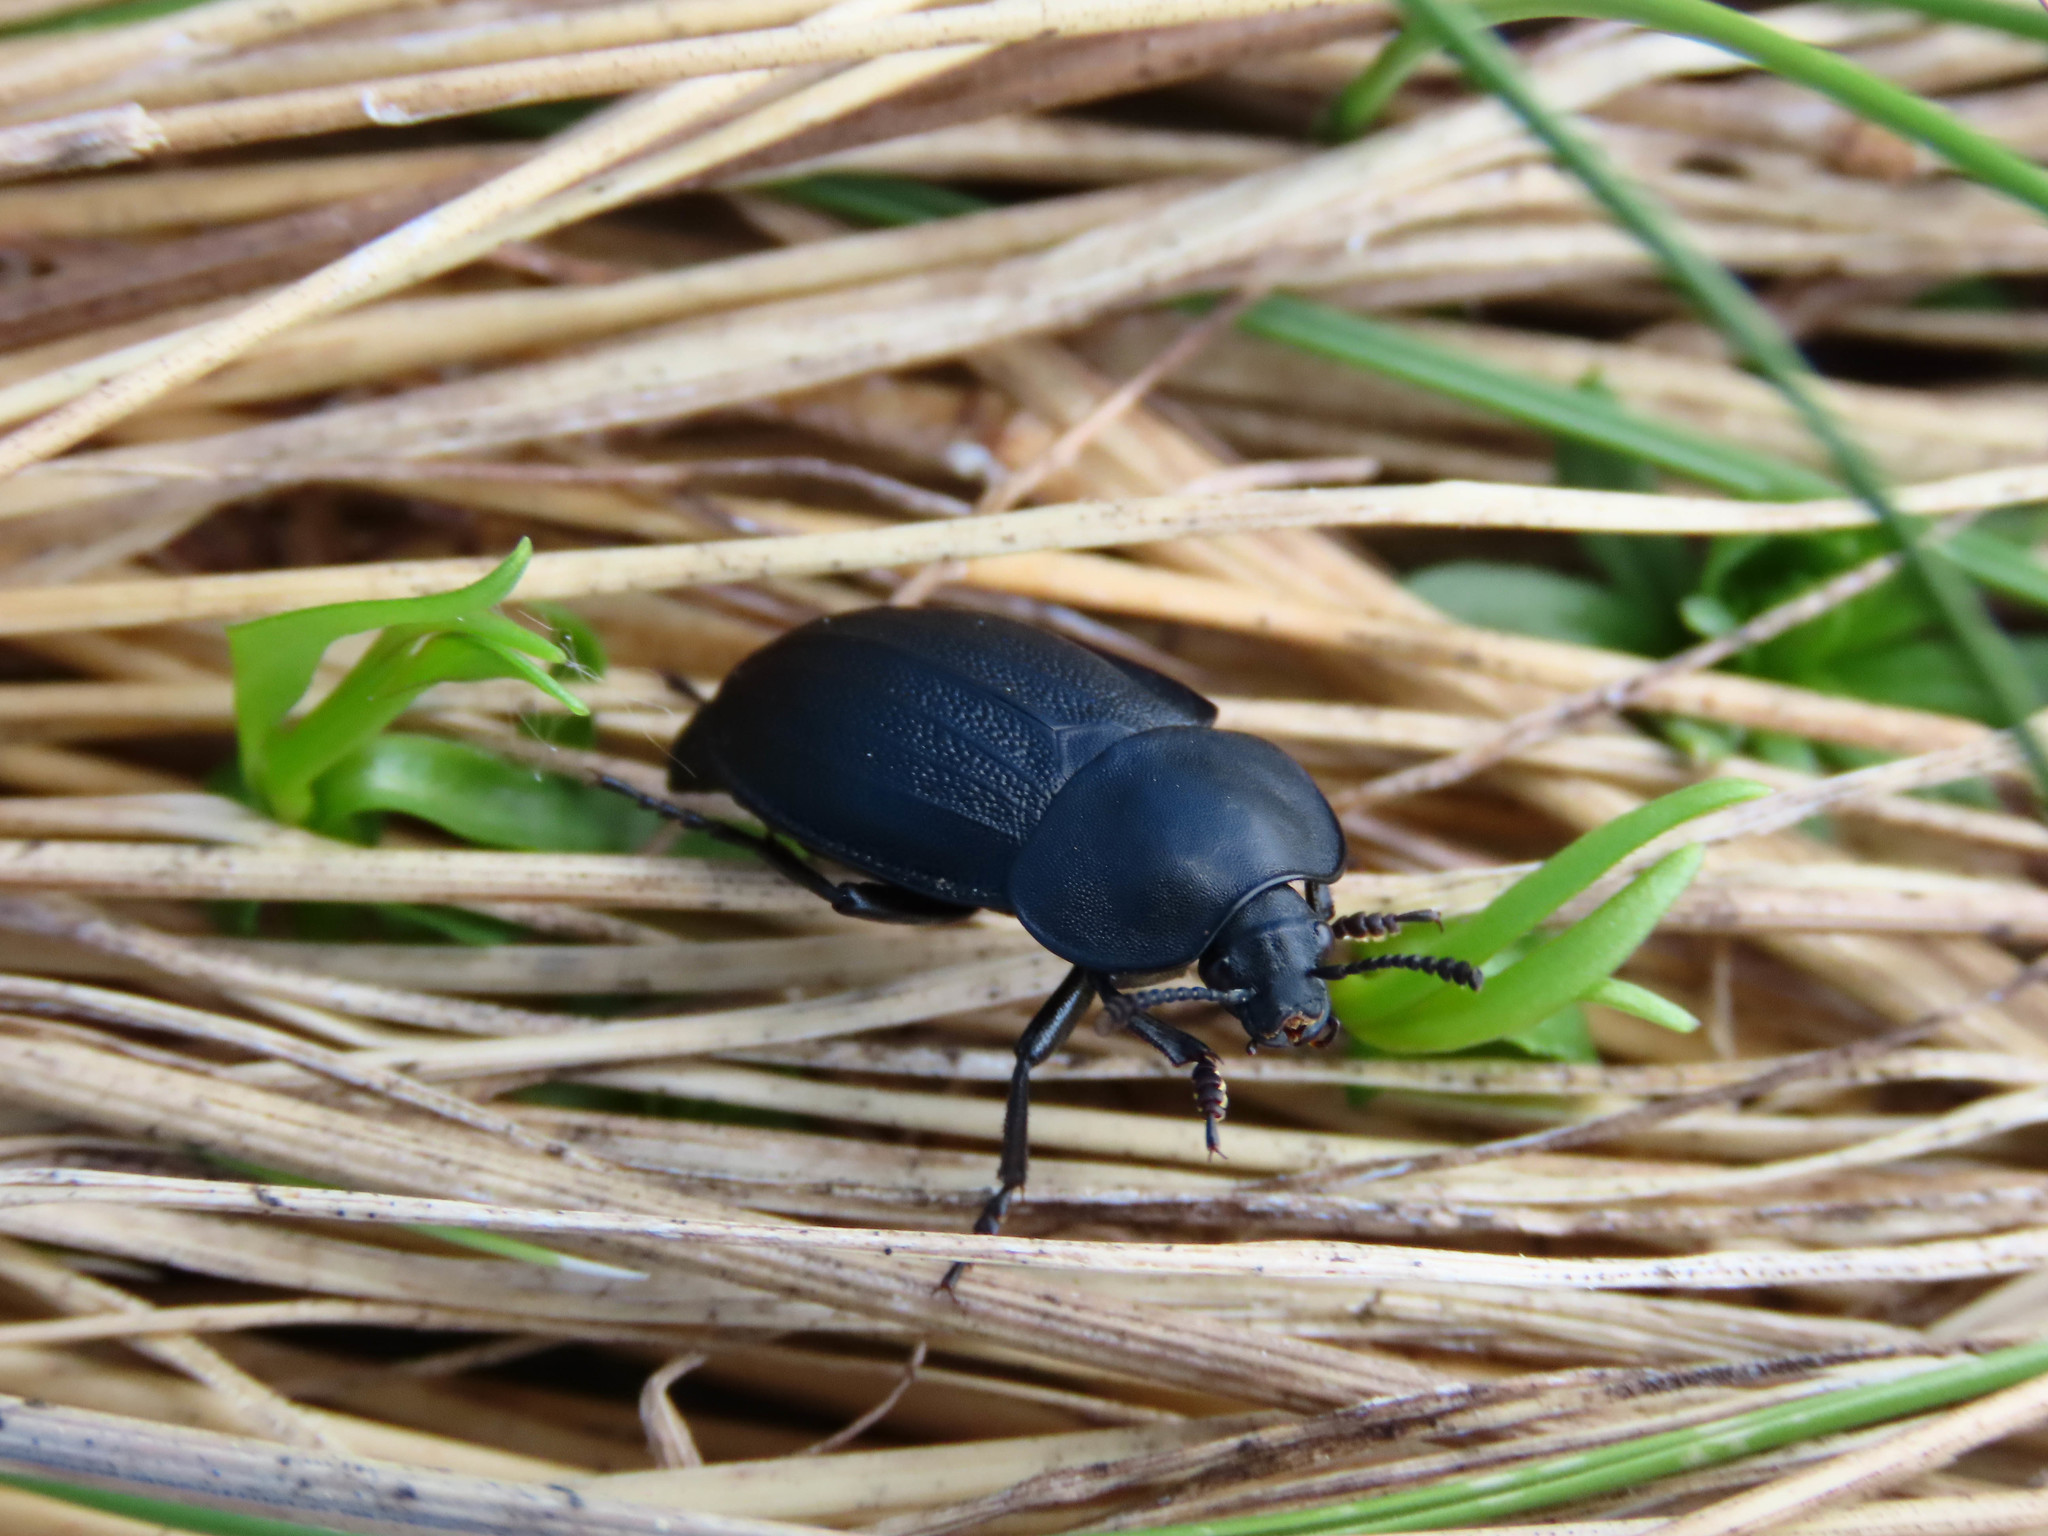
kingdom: Animalia
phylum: Arthropoda
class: Insecta
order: Coleoptera
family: Staphylinidae
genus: Silpha
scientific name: Silpha obscura
